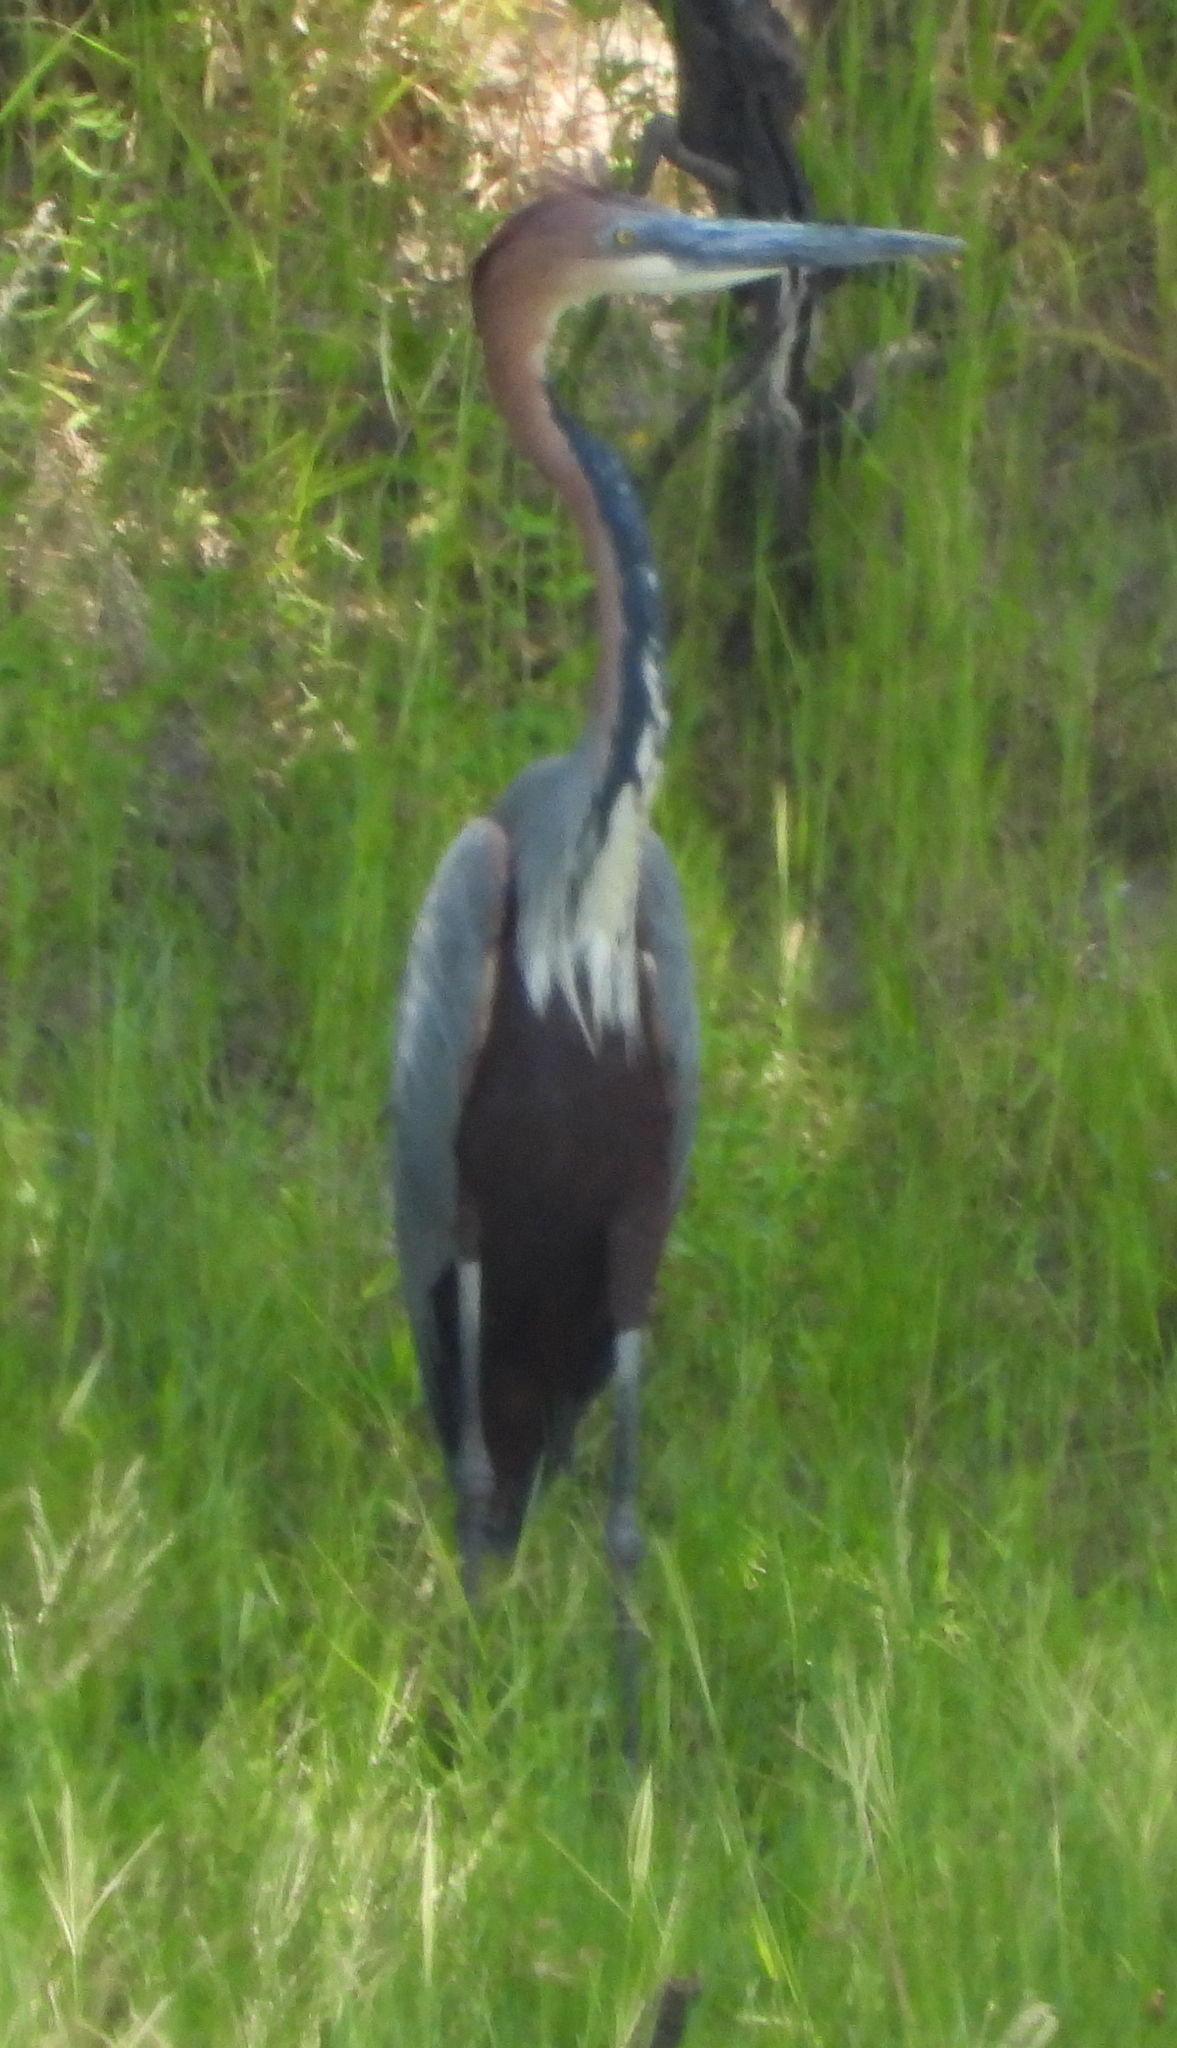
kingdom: Animalia
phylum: Chordata
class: Aves
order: Pelecaniformes
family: Ardeidae
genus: Ardea
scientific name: Ardea goliath
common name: Goliath heron
